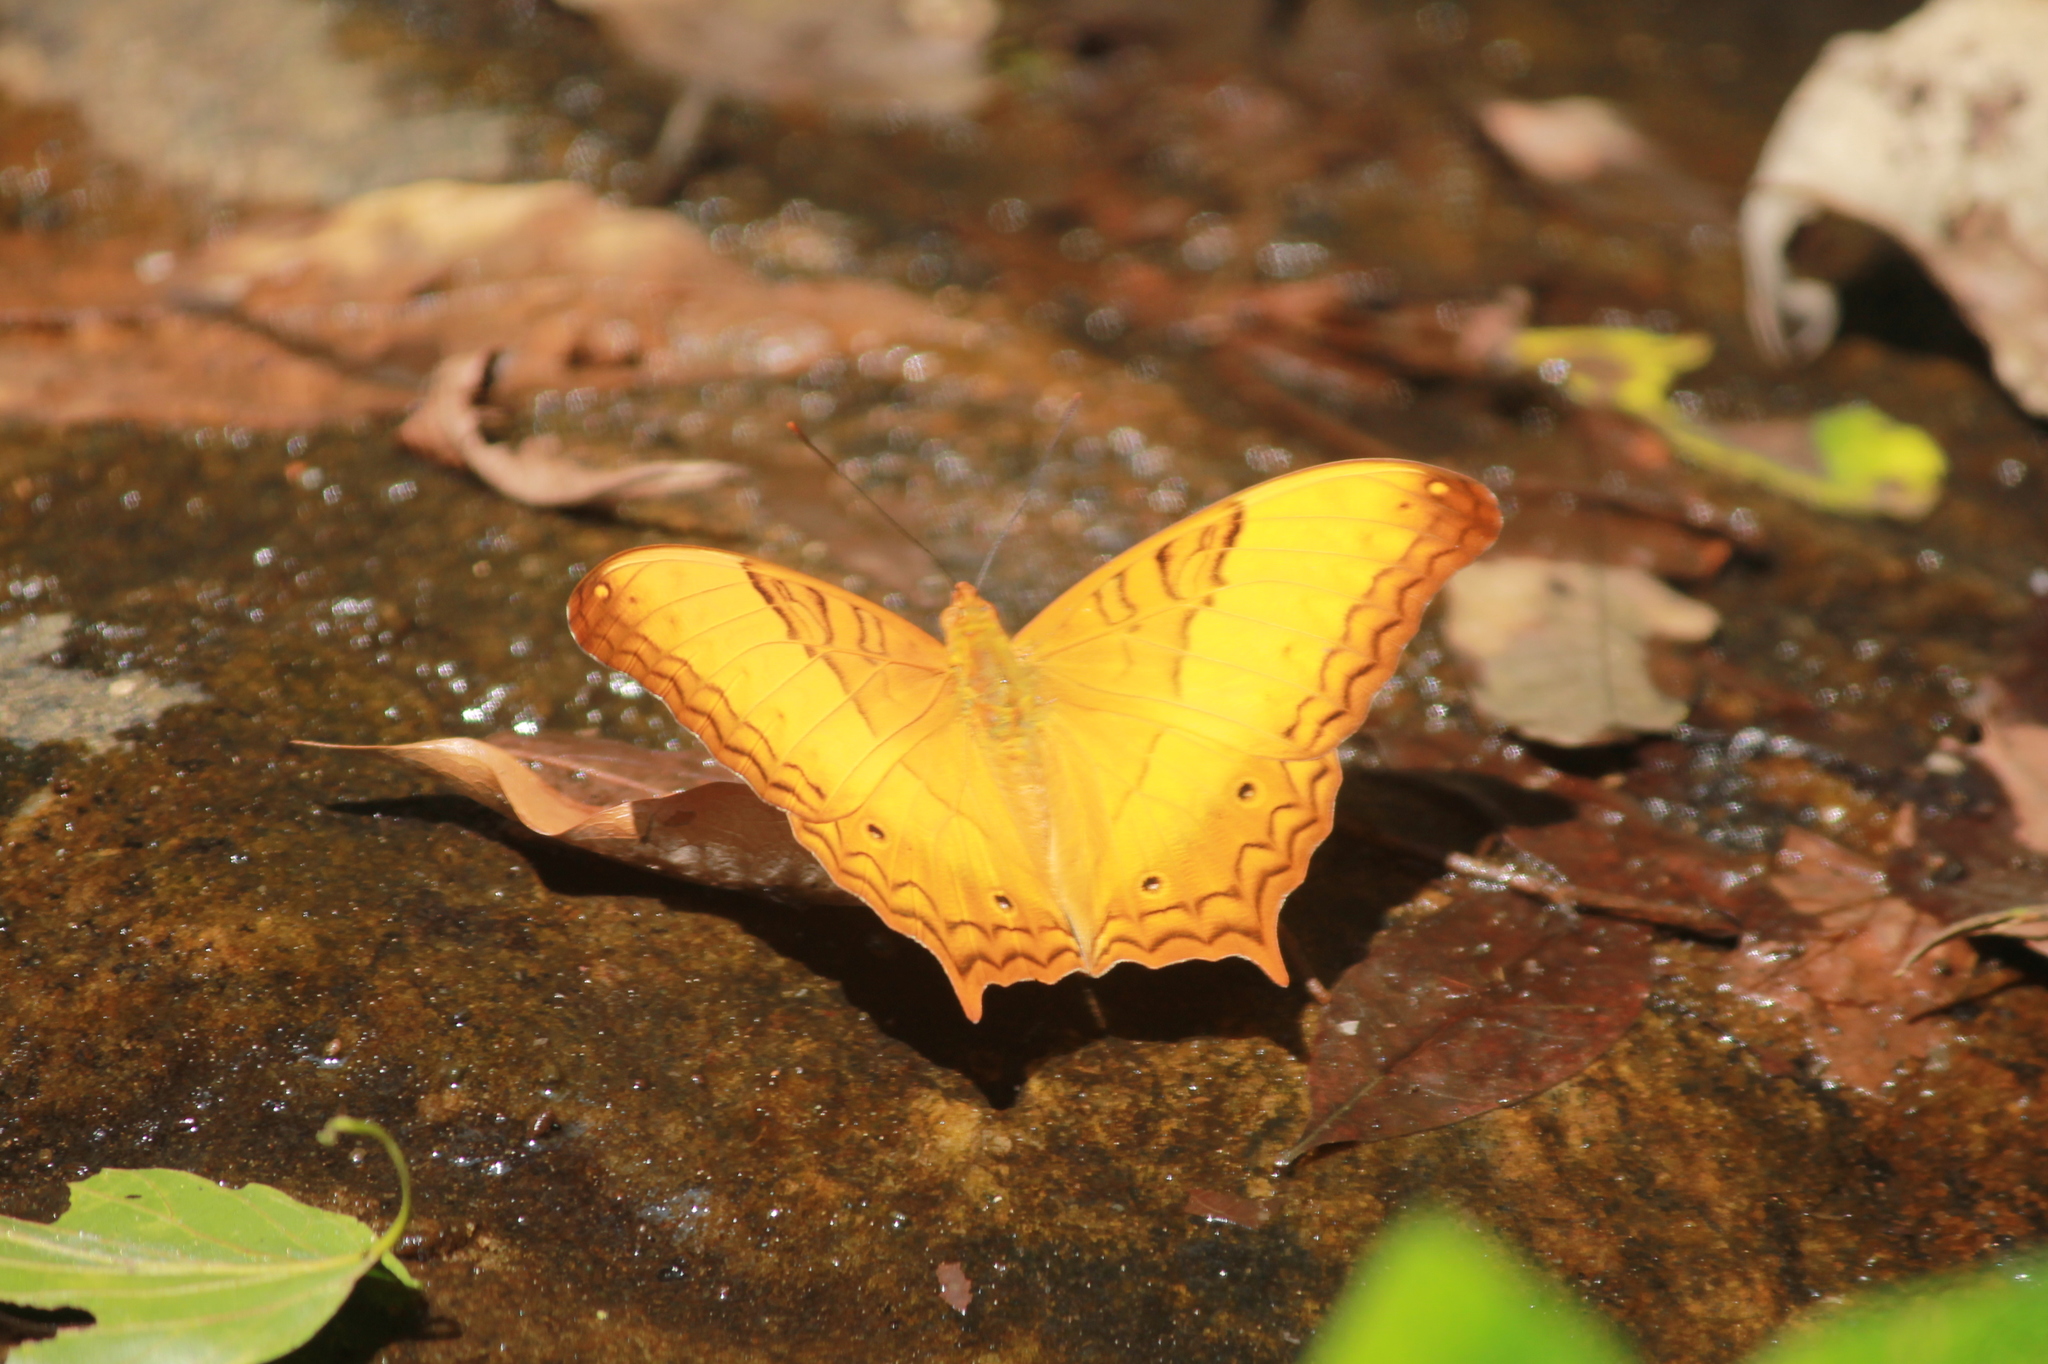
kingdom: Animalia
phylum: Arthropoda
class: Insecta
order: Lepidoptera
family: Nymphalidae
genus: Vindula
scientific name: Vindula erota
